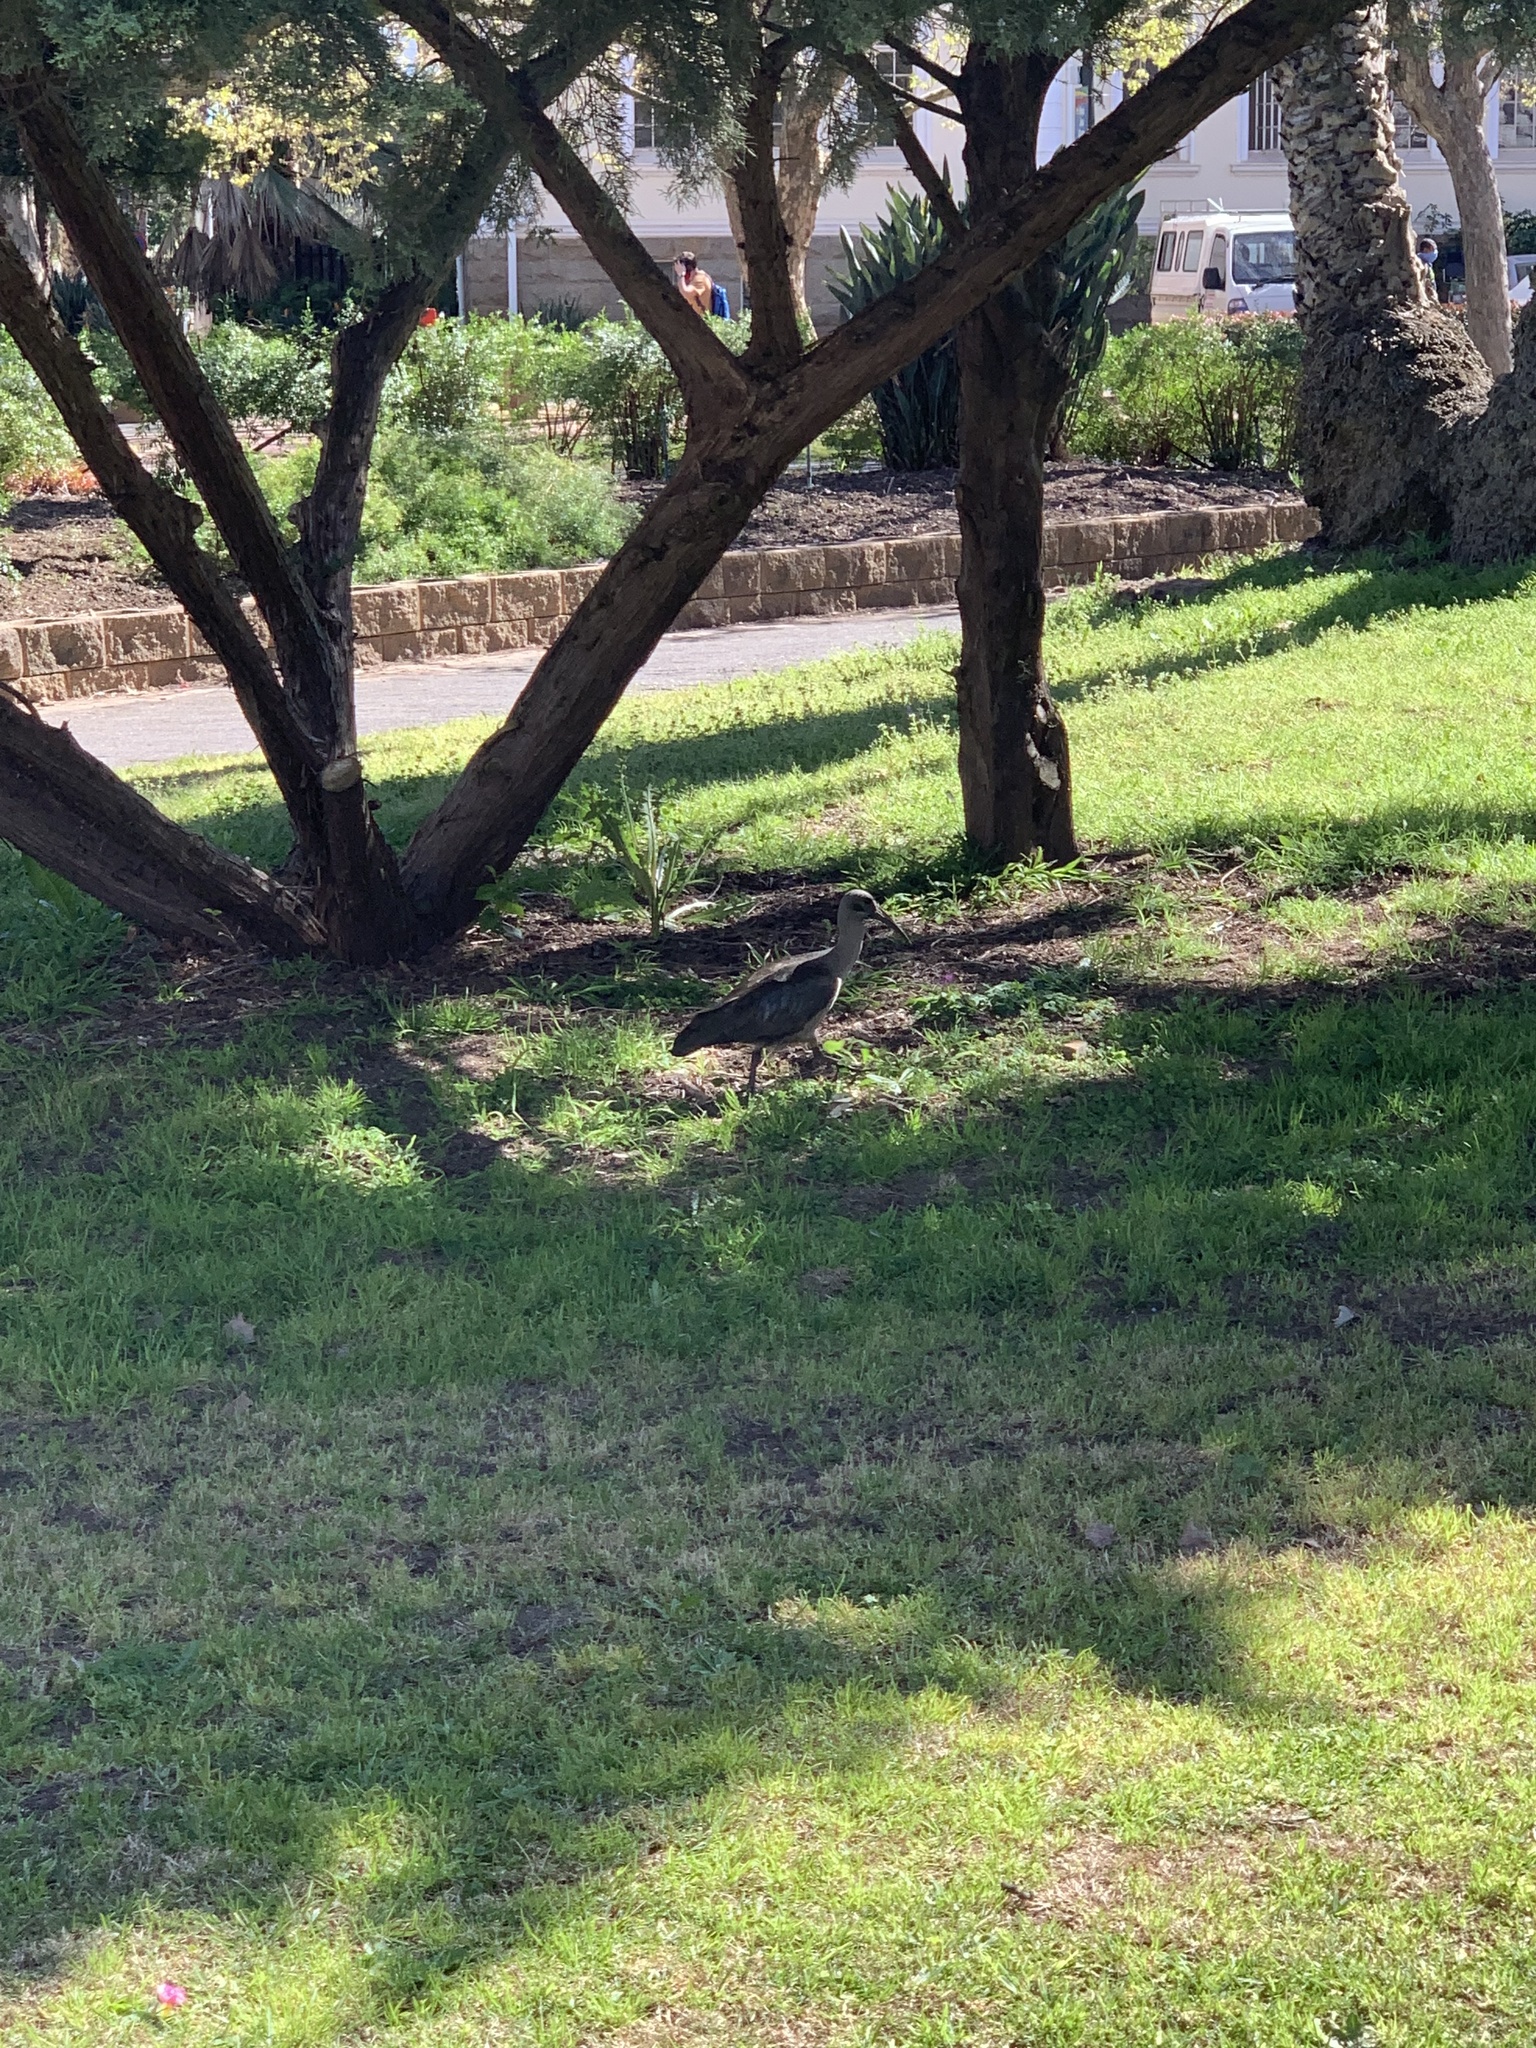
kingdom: Animalia
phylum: Chordata
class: Aves
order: Pelecaniformes
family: Threskiornithidae
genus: Bostrychia
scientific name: Bostrychia hagedash
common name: Hadada ibis
